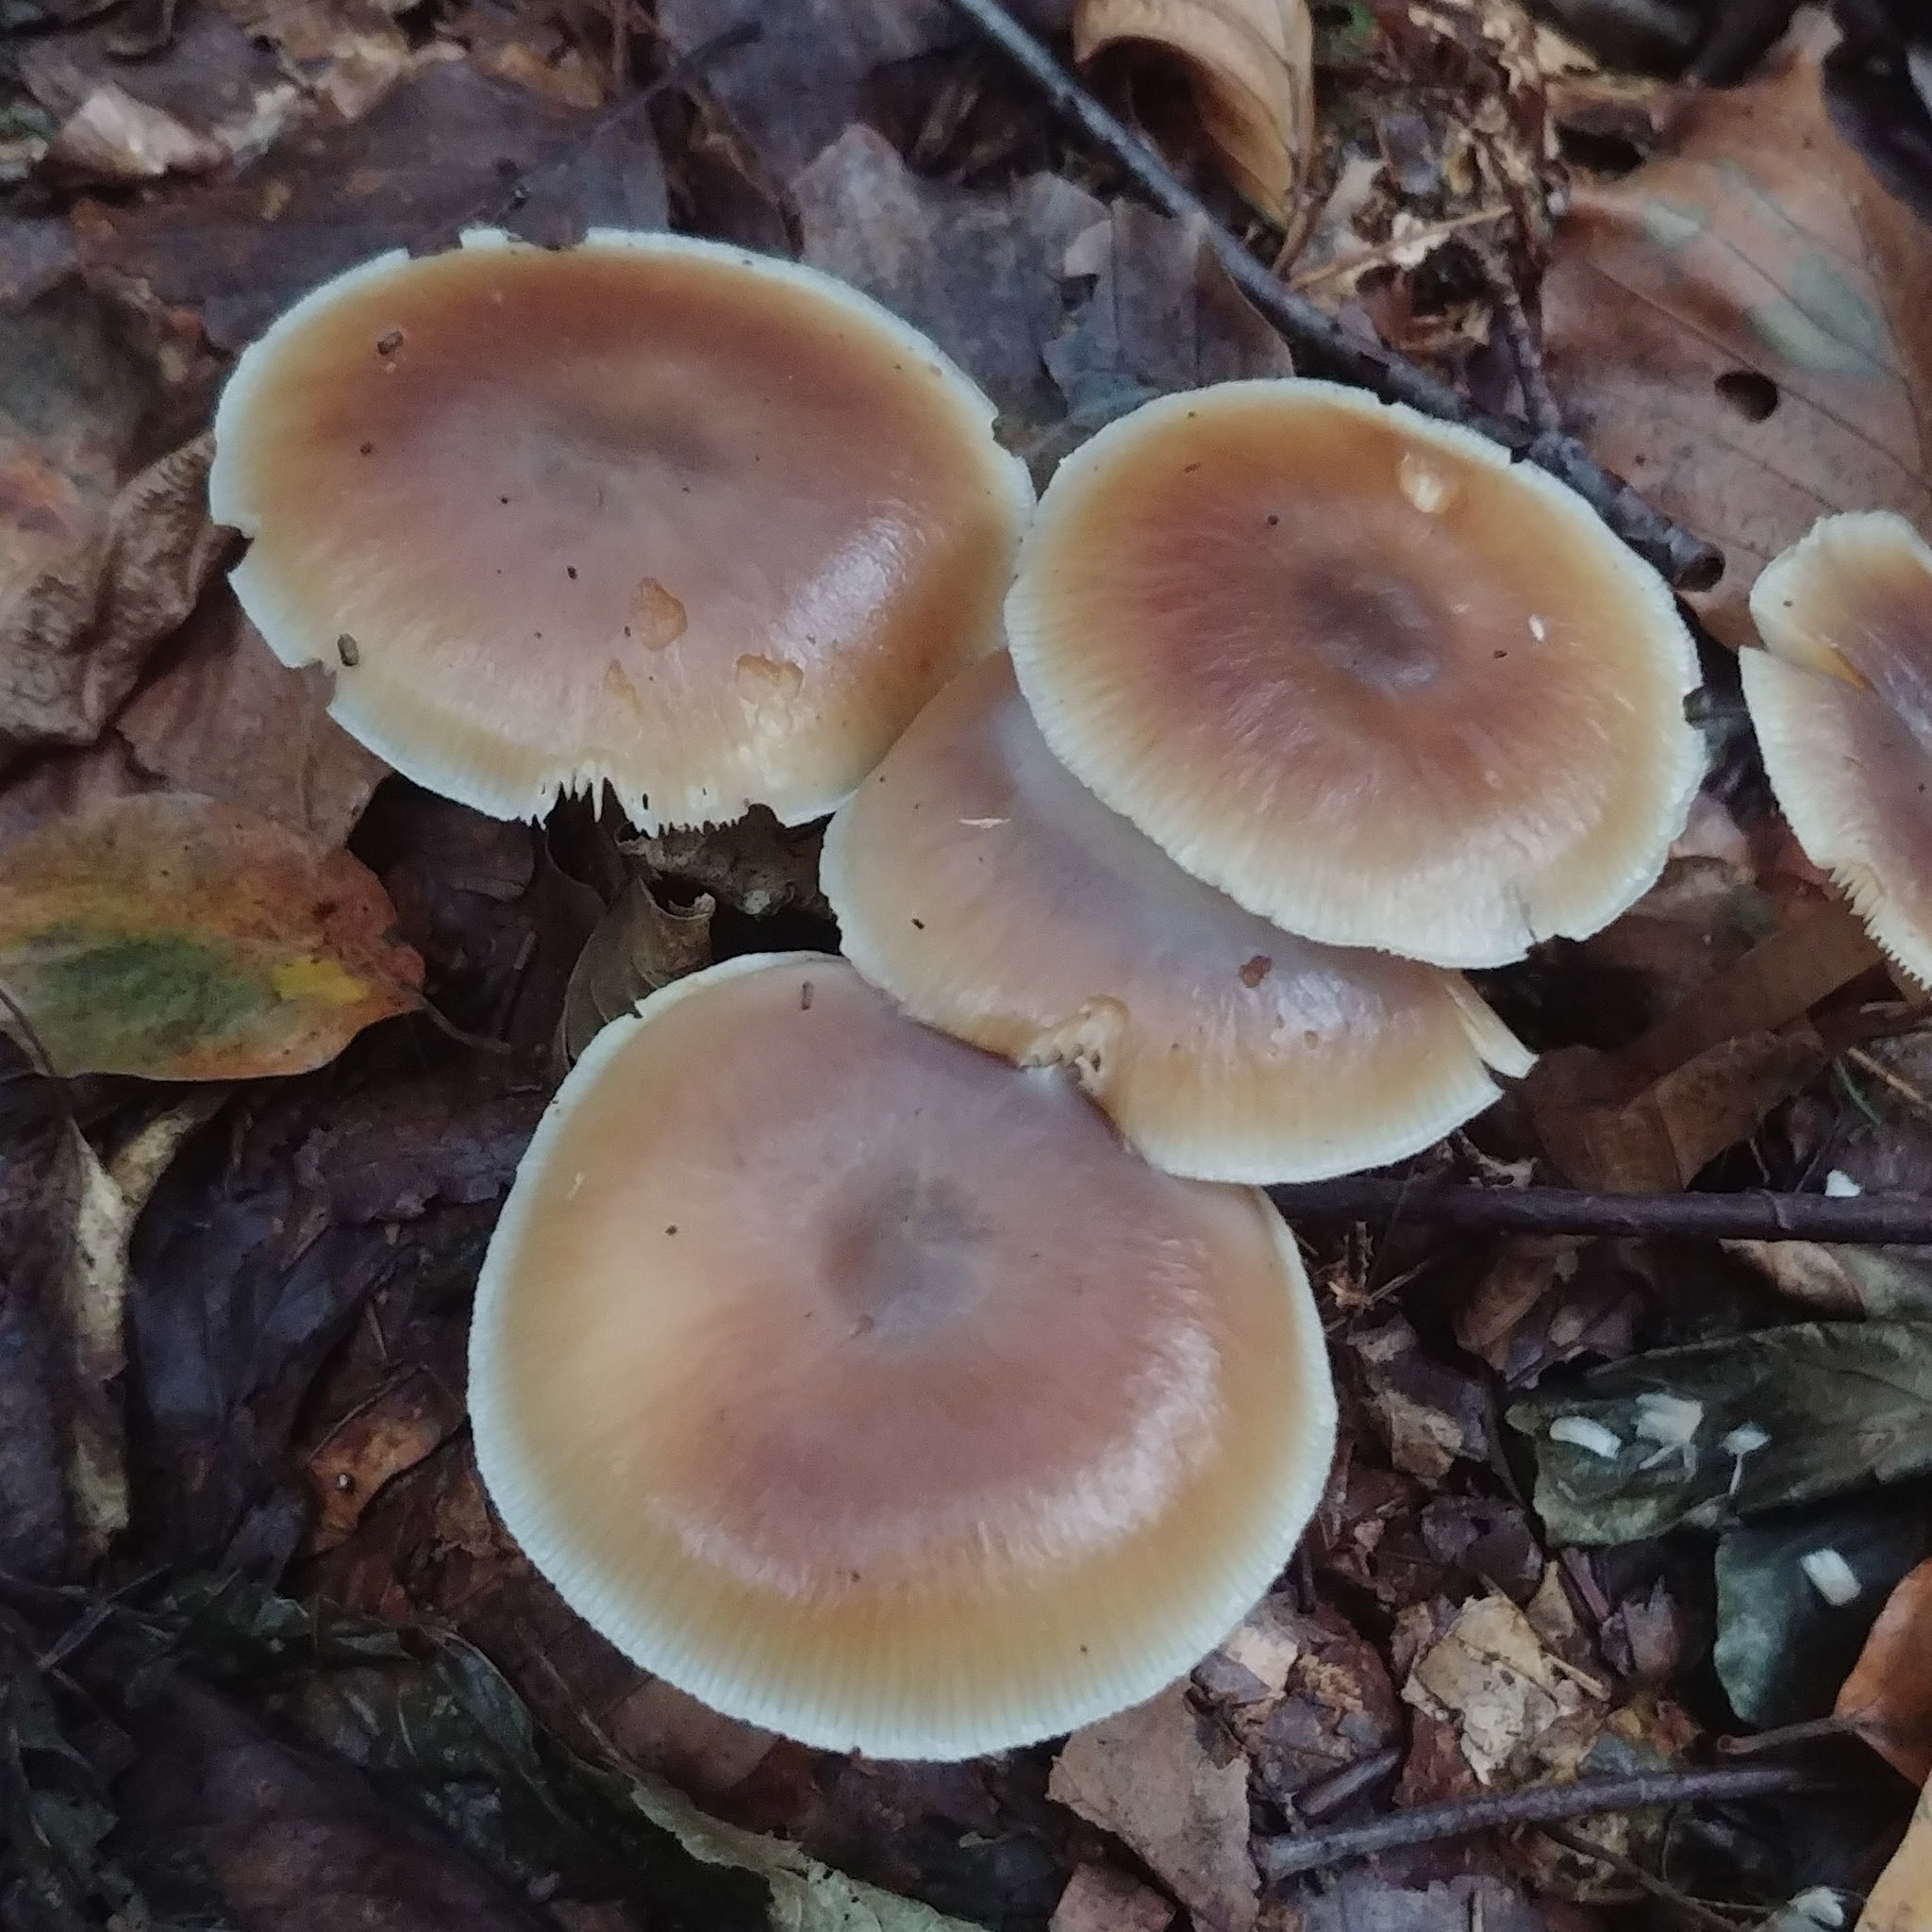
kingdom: Fungi
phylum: Basidiomycota
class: Agaricomycetes
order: Agaricales
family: Omphalotaceae
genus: Rhodocollybia
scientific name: Rhodocollybia asema
